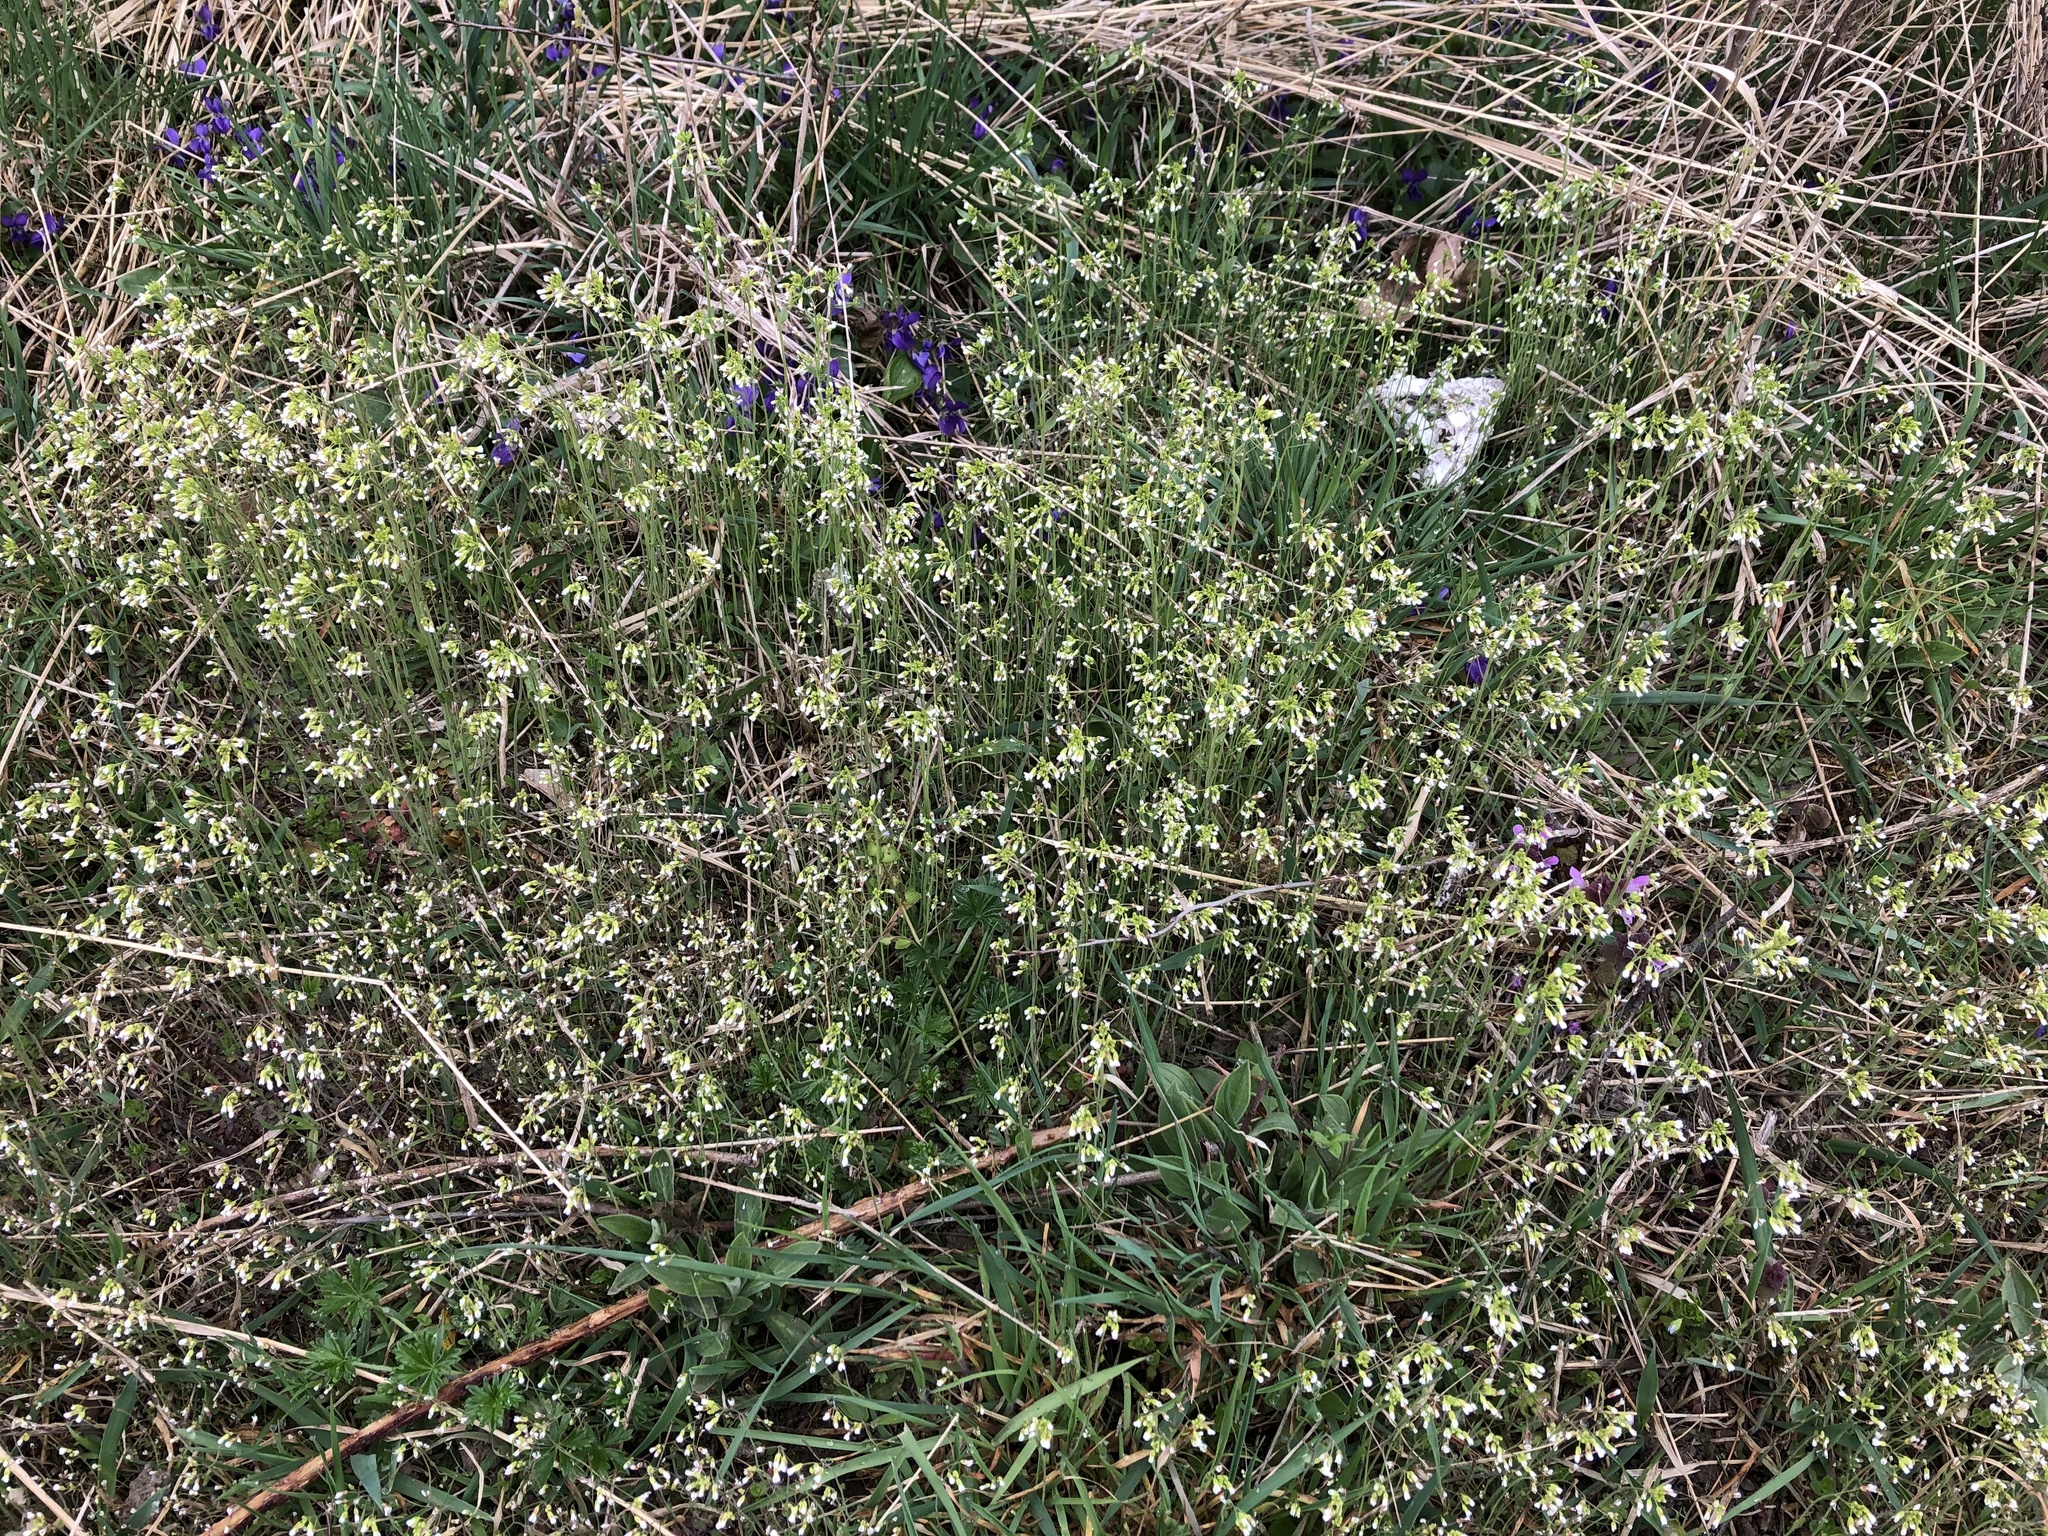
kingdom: Plantae
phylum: Tracheophyta
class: Magnoliopsida
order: Brassicales
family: Brassicaceae
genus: Arabidopsis
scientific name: Arabidopsis thaliana
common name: Thale cress
